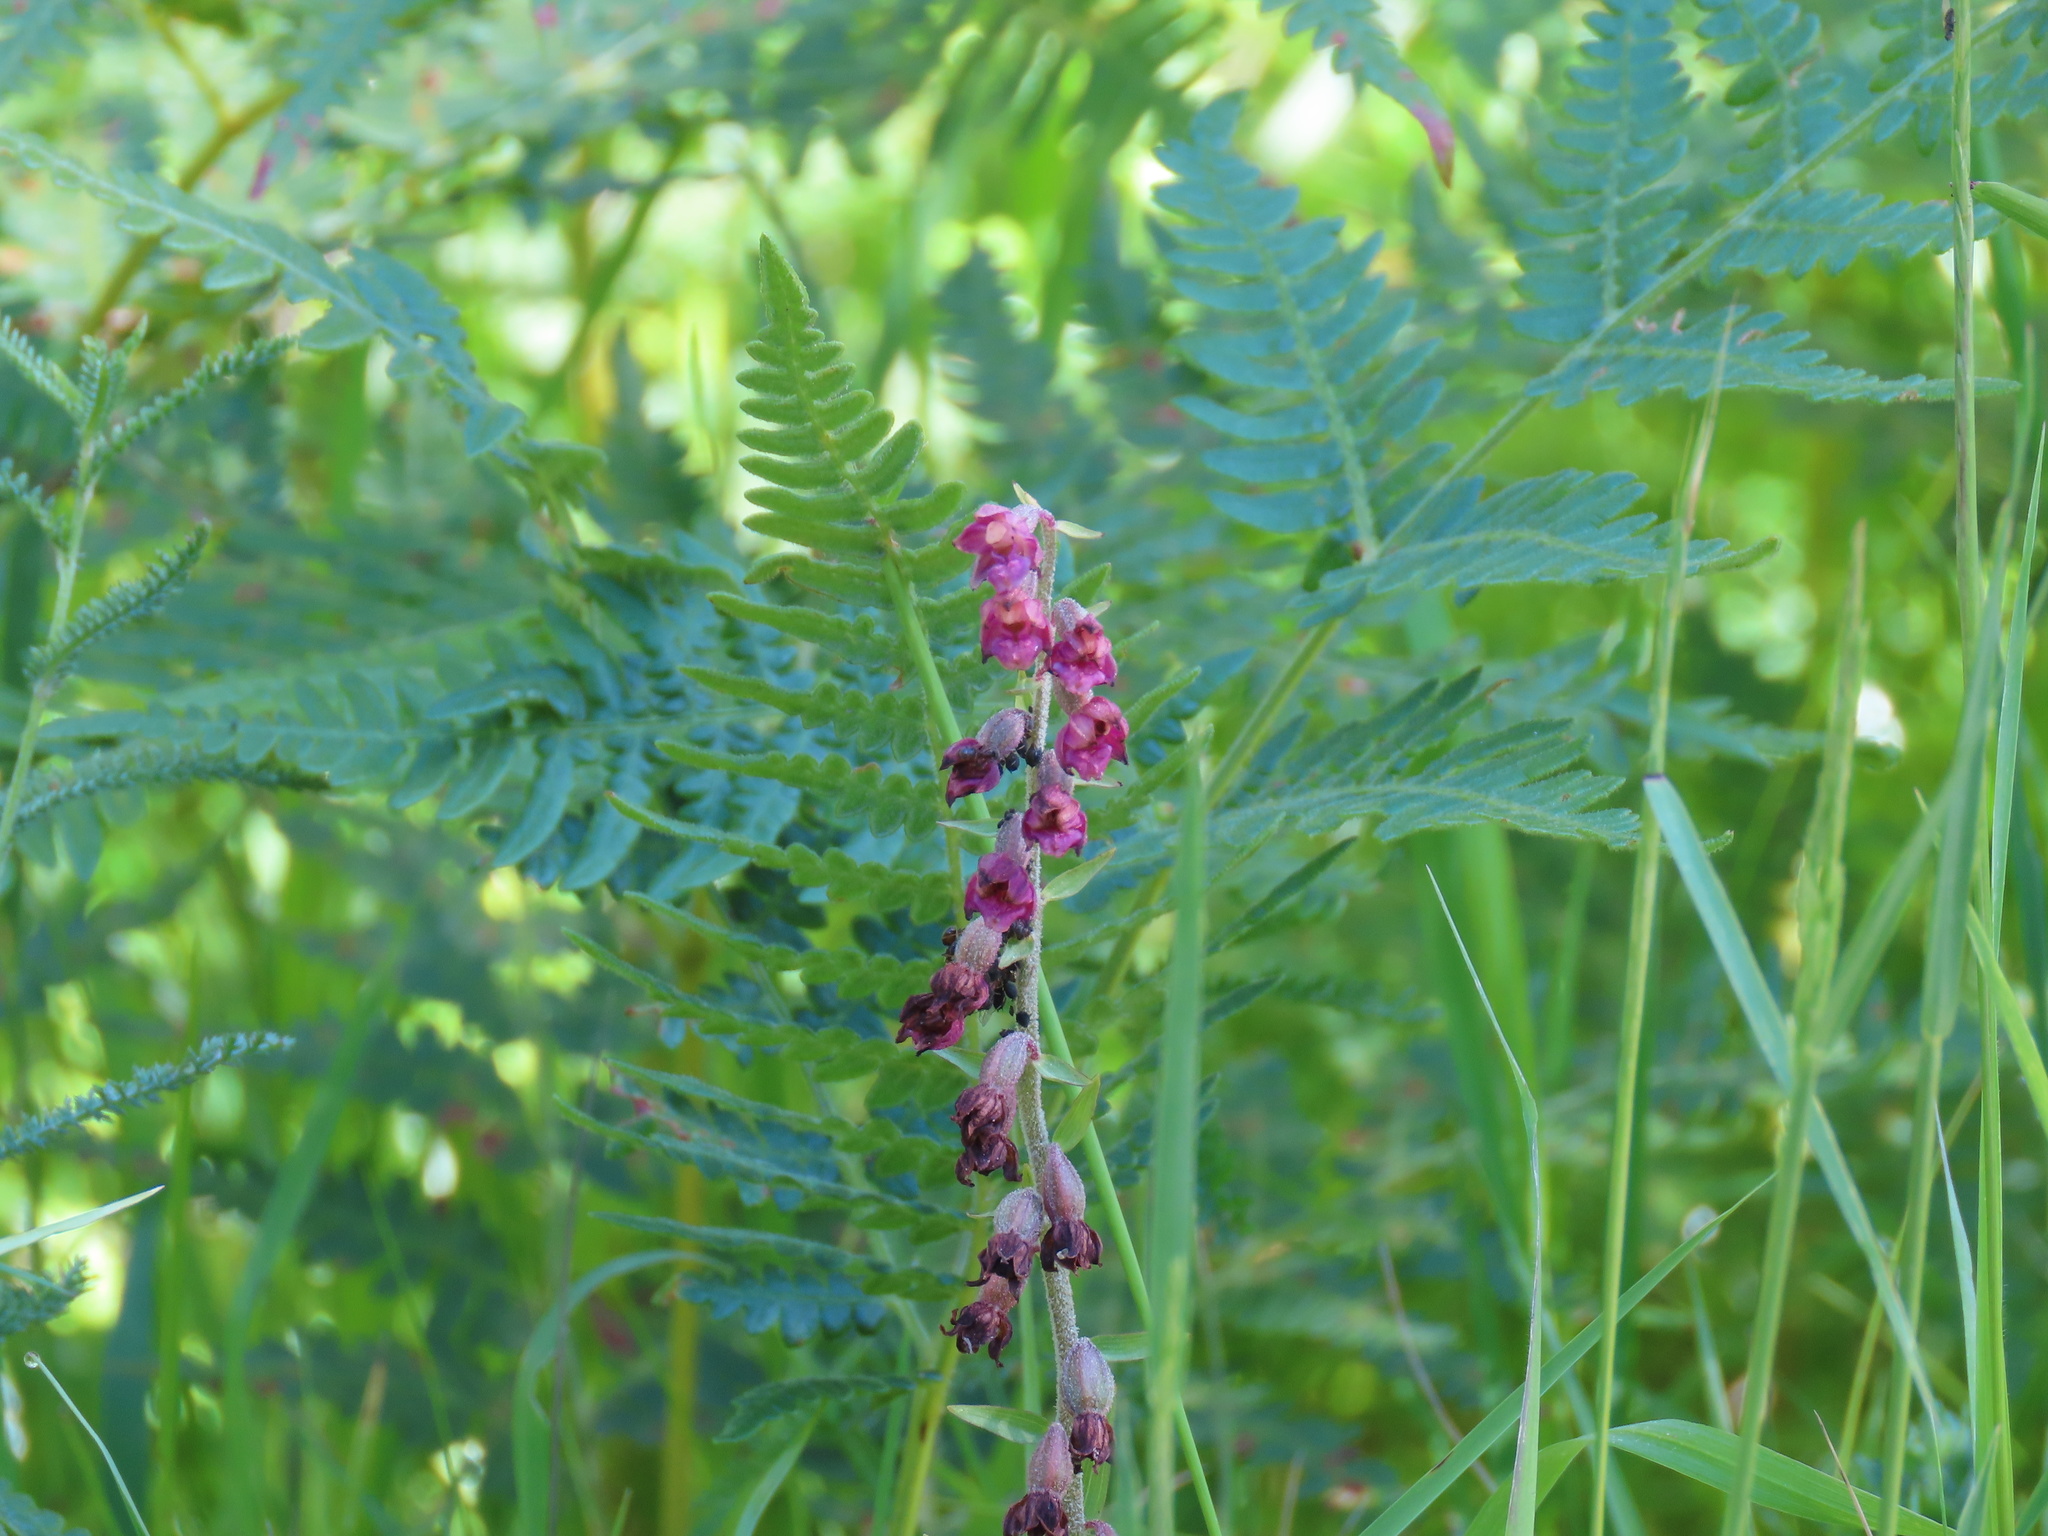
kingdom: Plantae
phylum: Tracheophyta
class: Liliopsida
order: Asparagales
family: Orchidaceae
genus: Epipactis
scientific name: Epipactis atrorubens
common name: Dark-red helleborine
